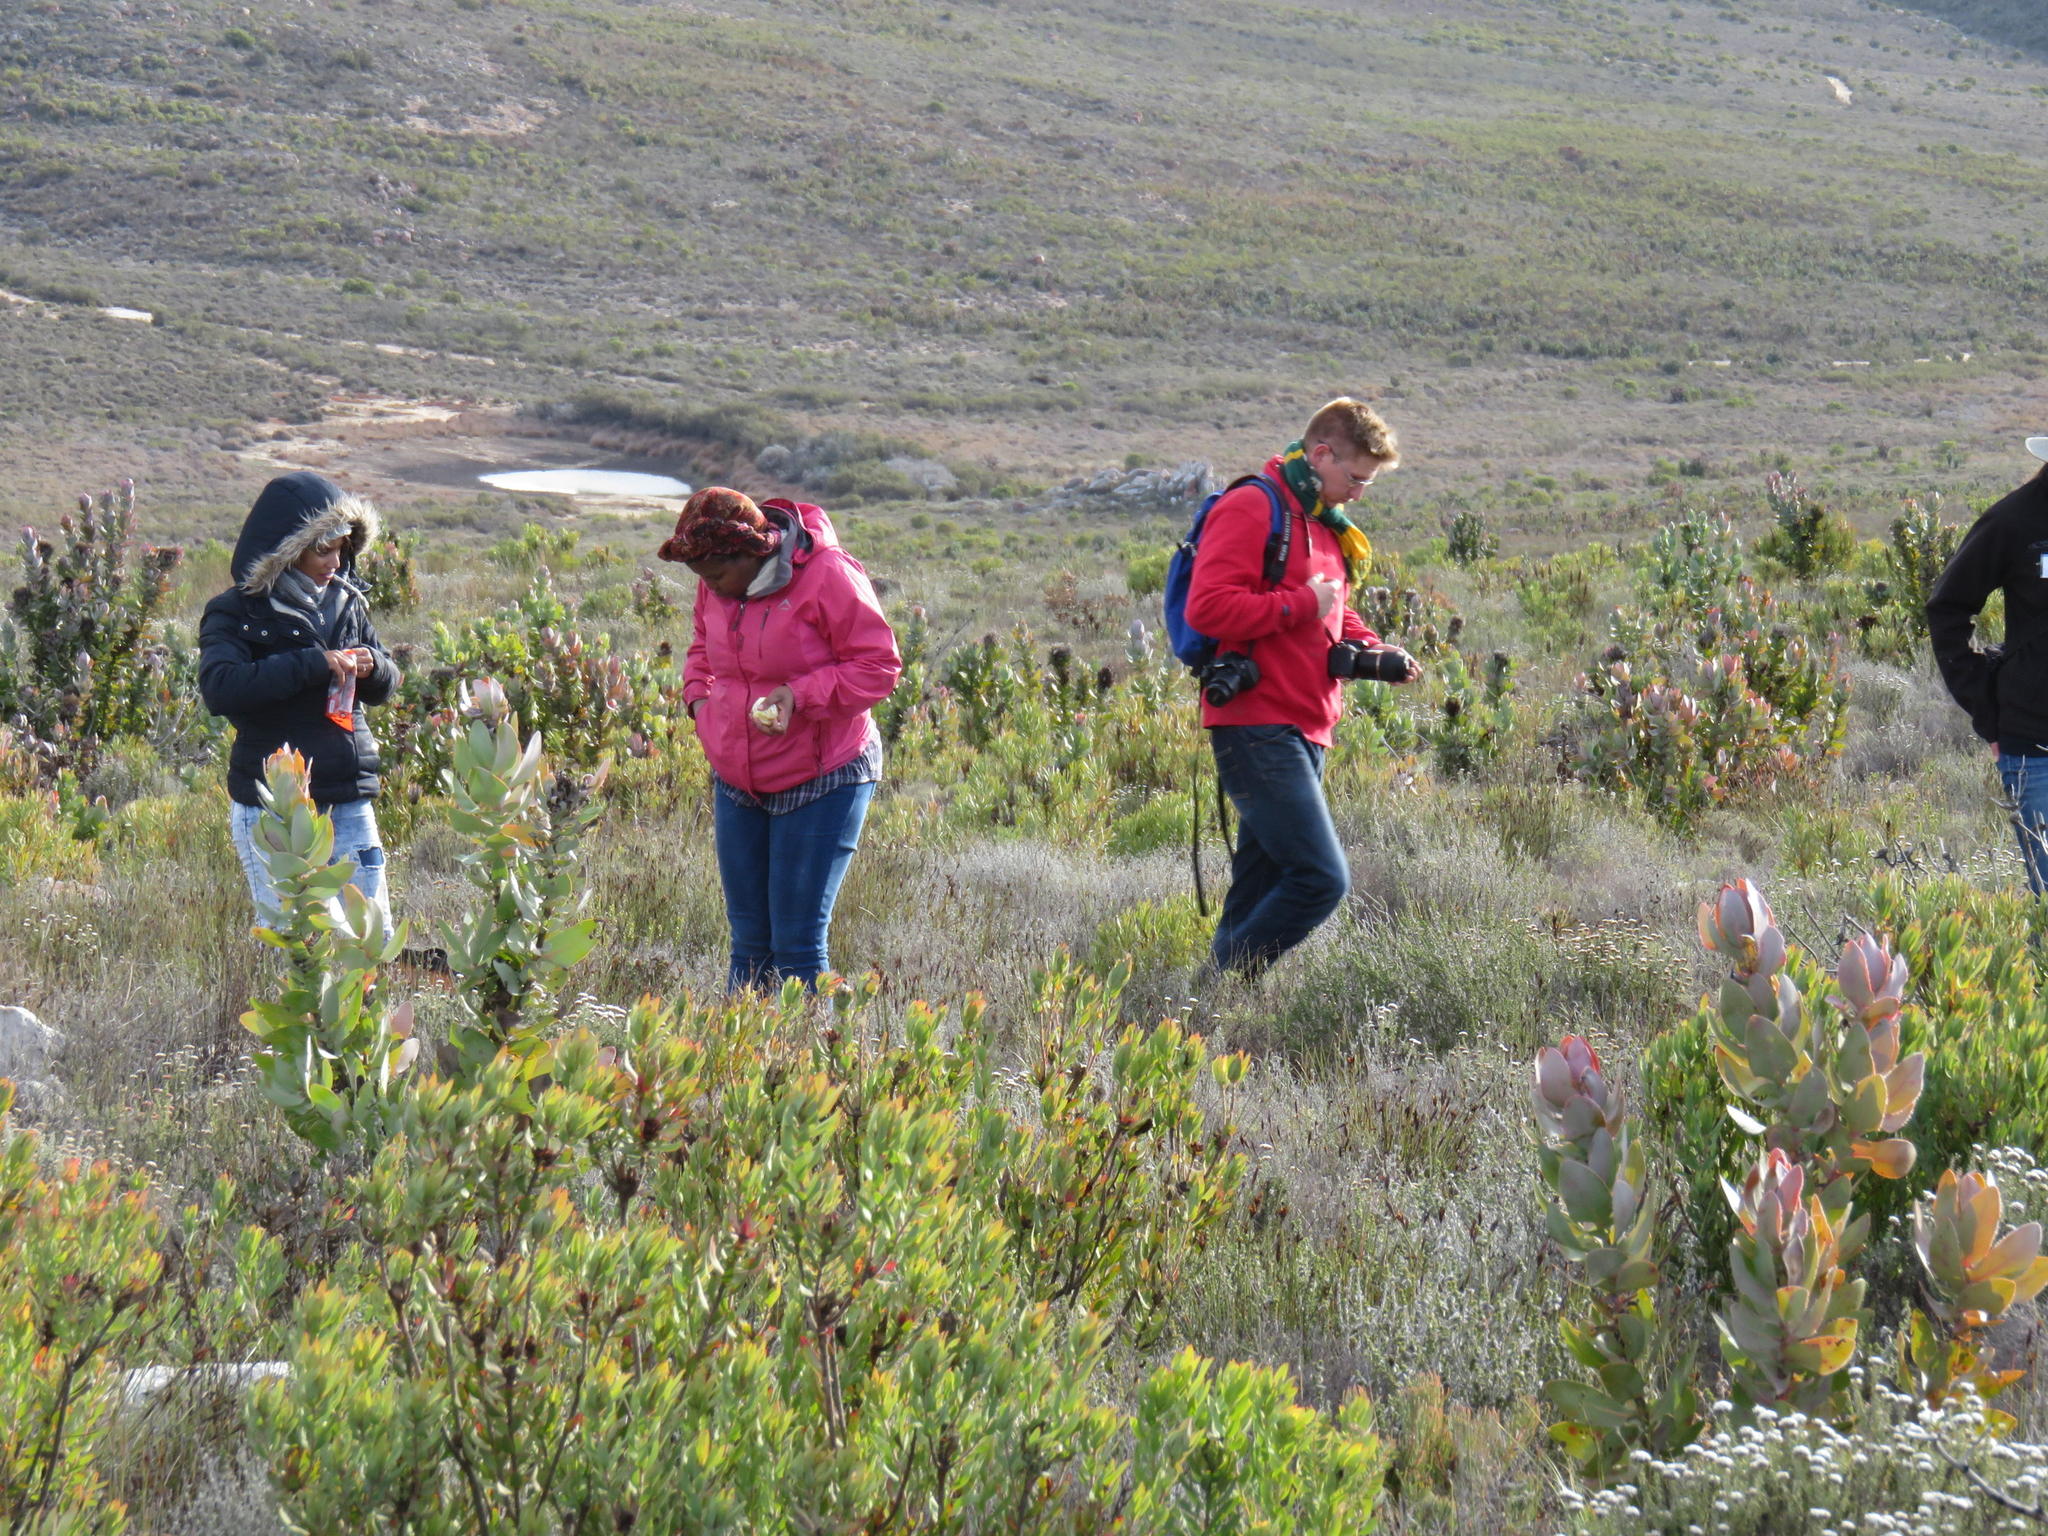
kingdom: Plantae
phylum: Tracheophyta
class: Magnoliopsida
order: Proteales
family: Proteaceae
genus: Leucadendron
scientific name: Leucadendron barkerae
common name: Swartberg conebush
